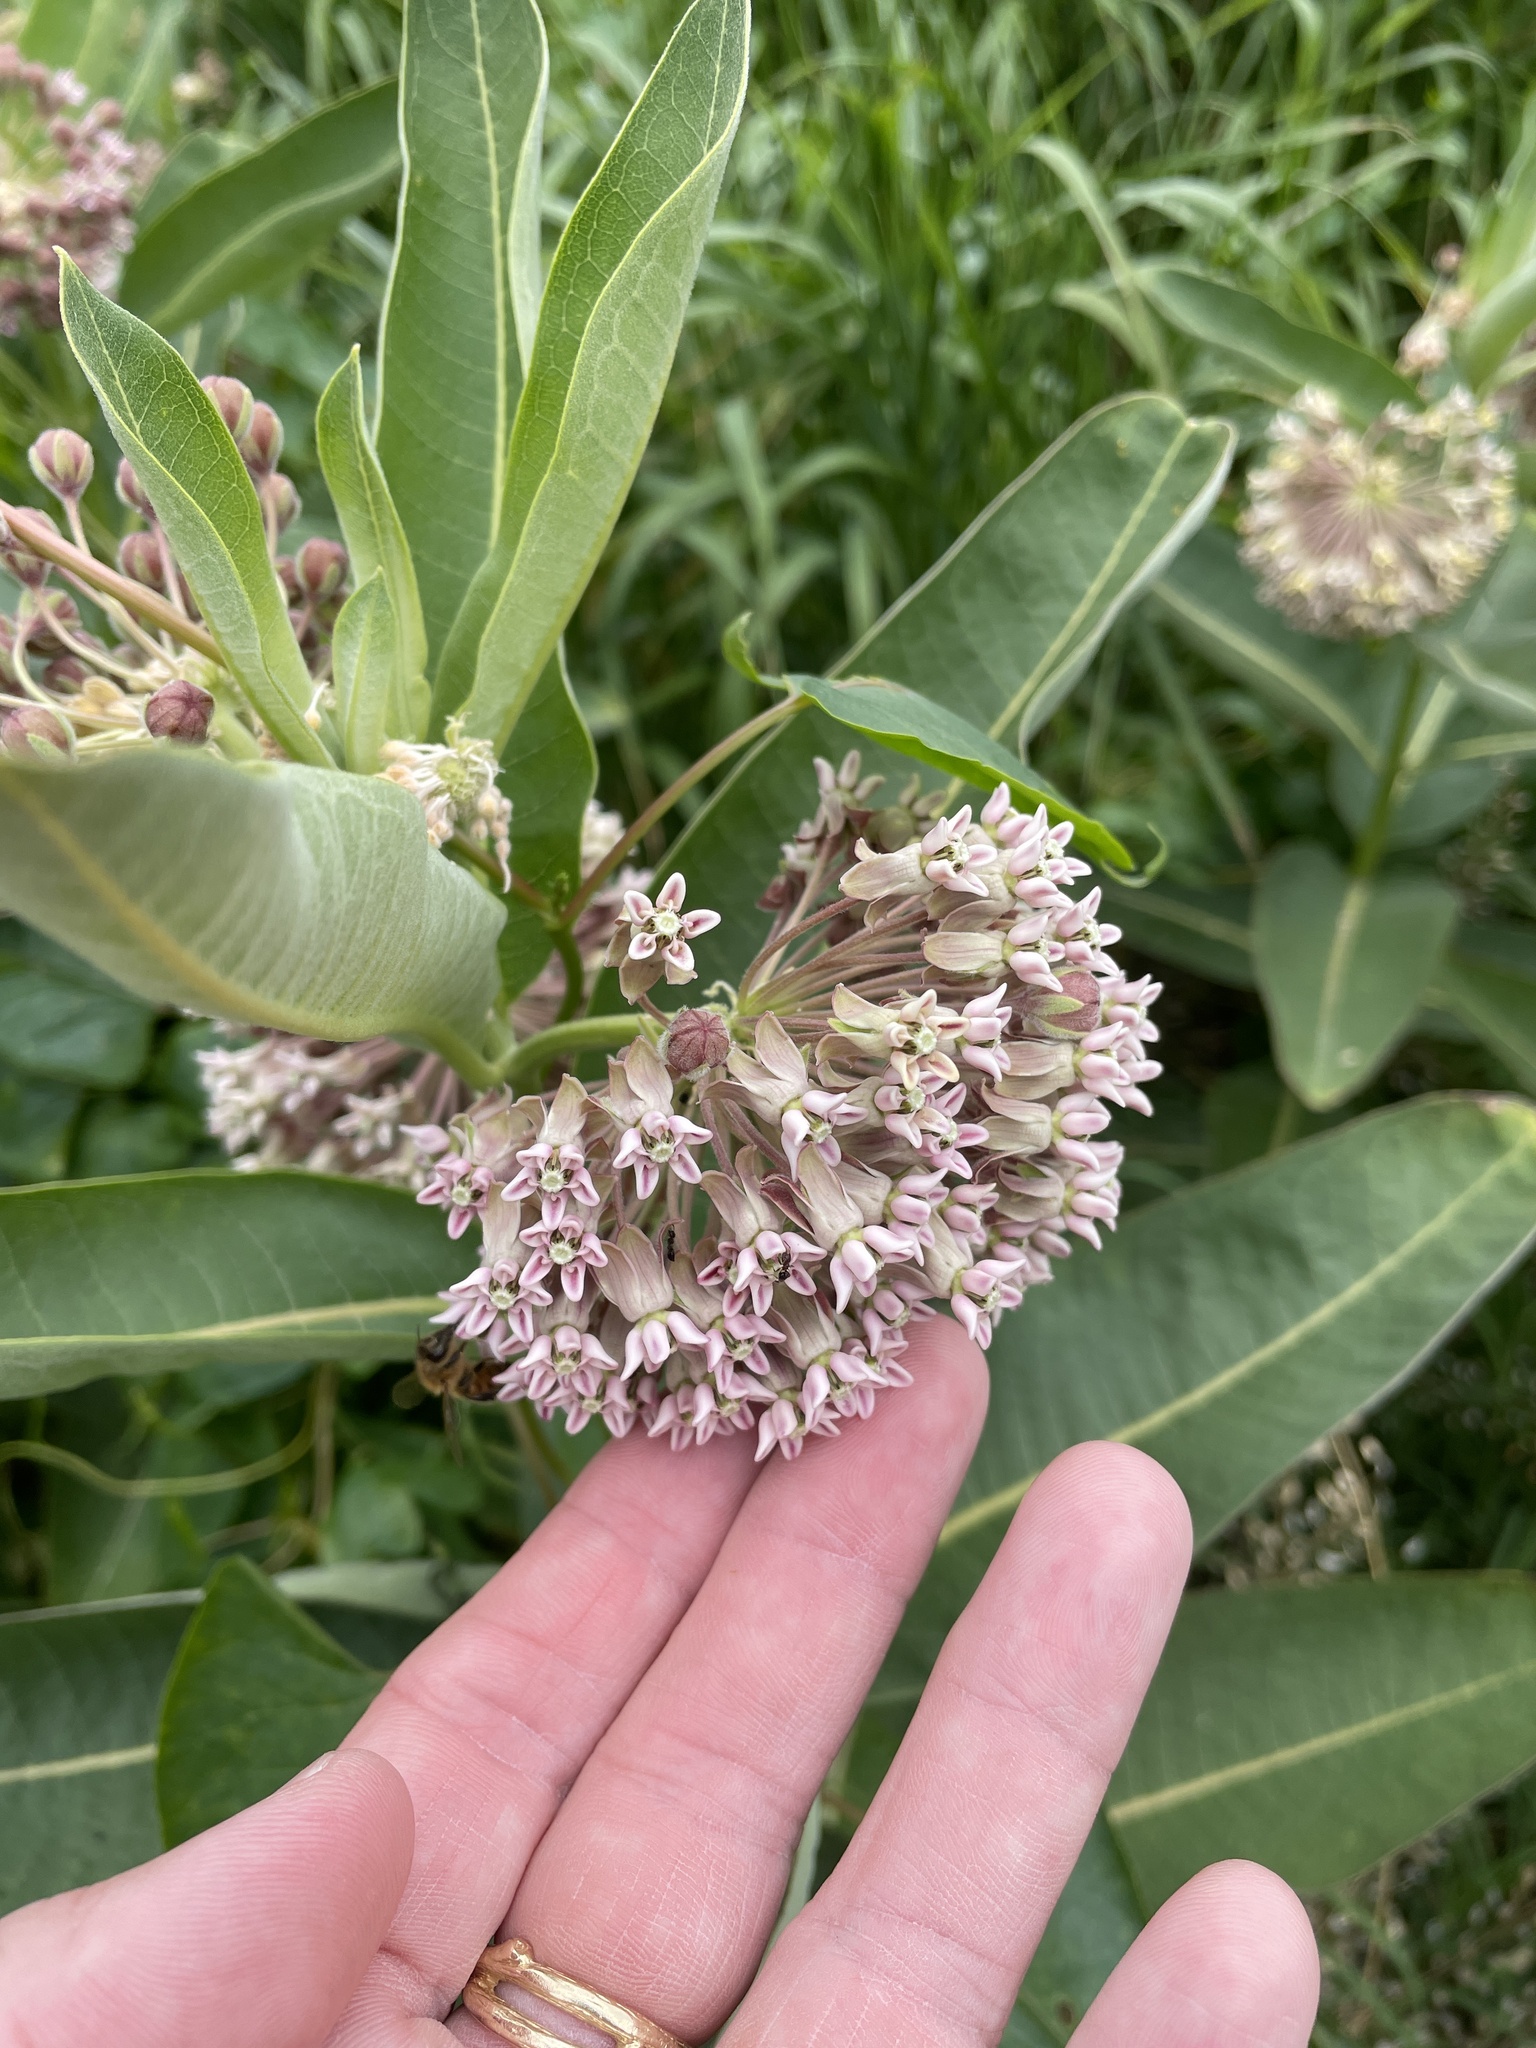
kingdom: Plantae
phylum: Tracheophyta
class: Magnoliopsida
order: Gentianales
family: Apocynaceae
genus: Asclepias
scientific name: Asclepias syriaca
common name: Common milkweed
